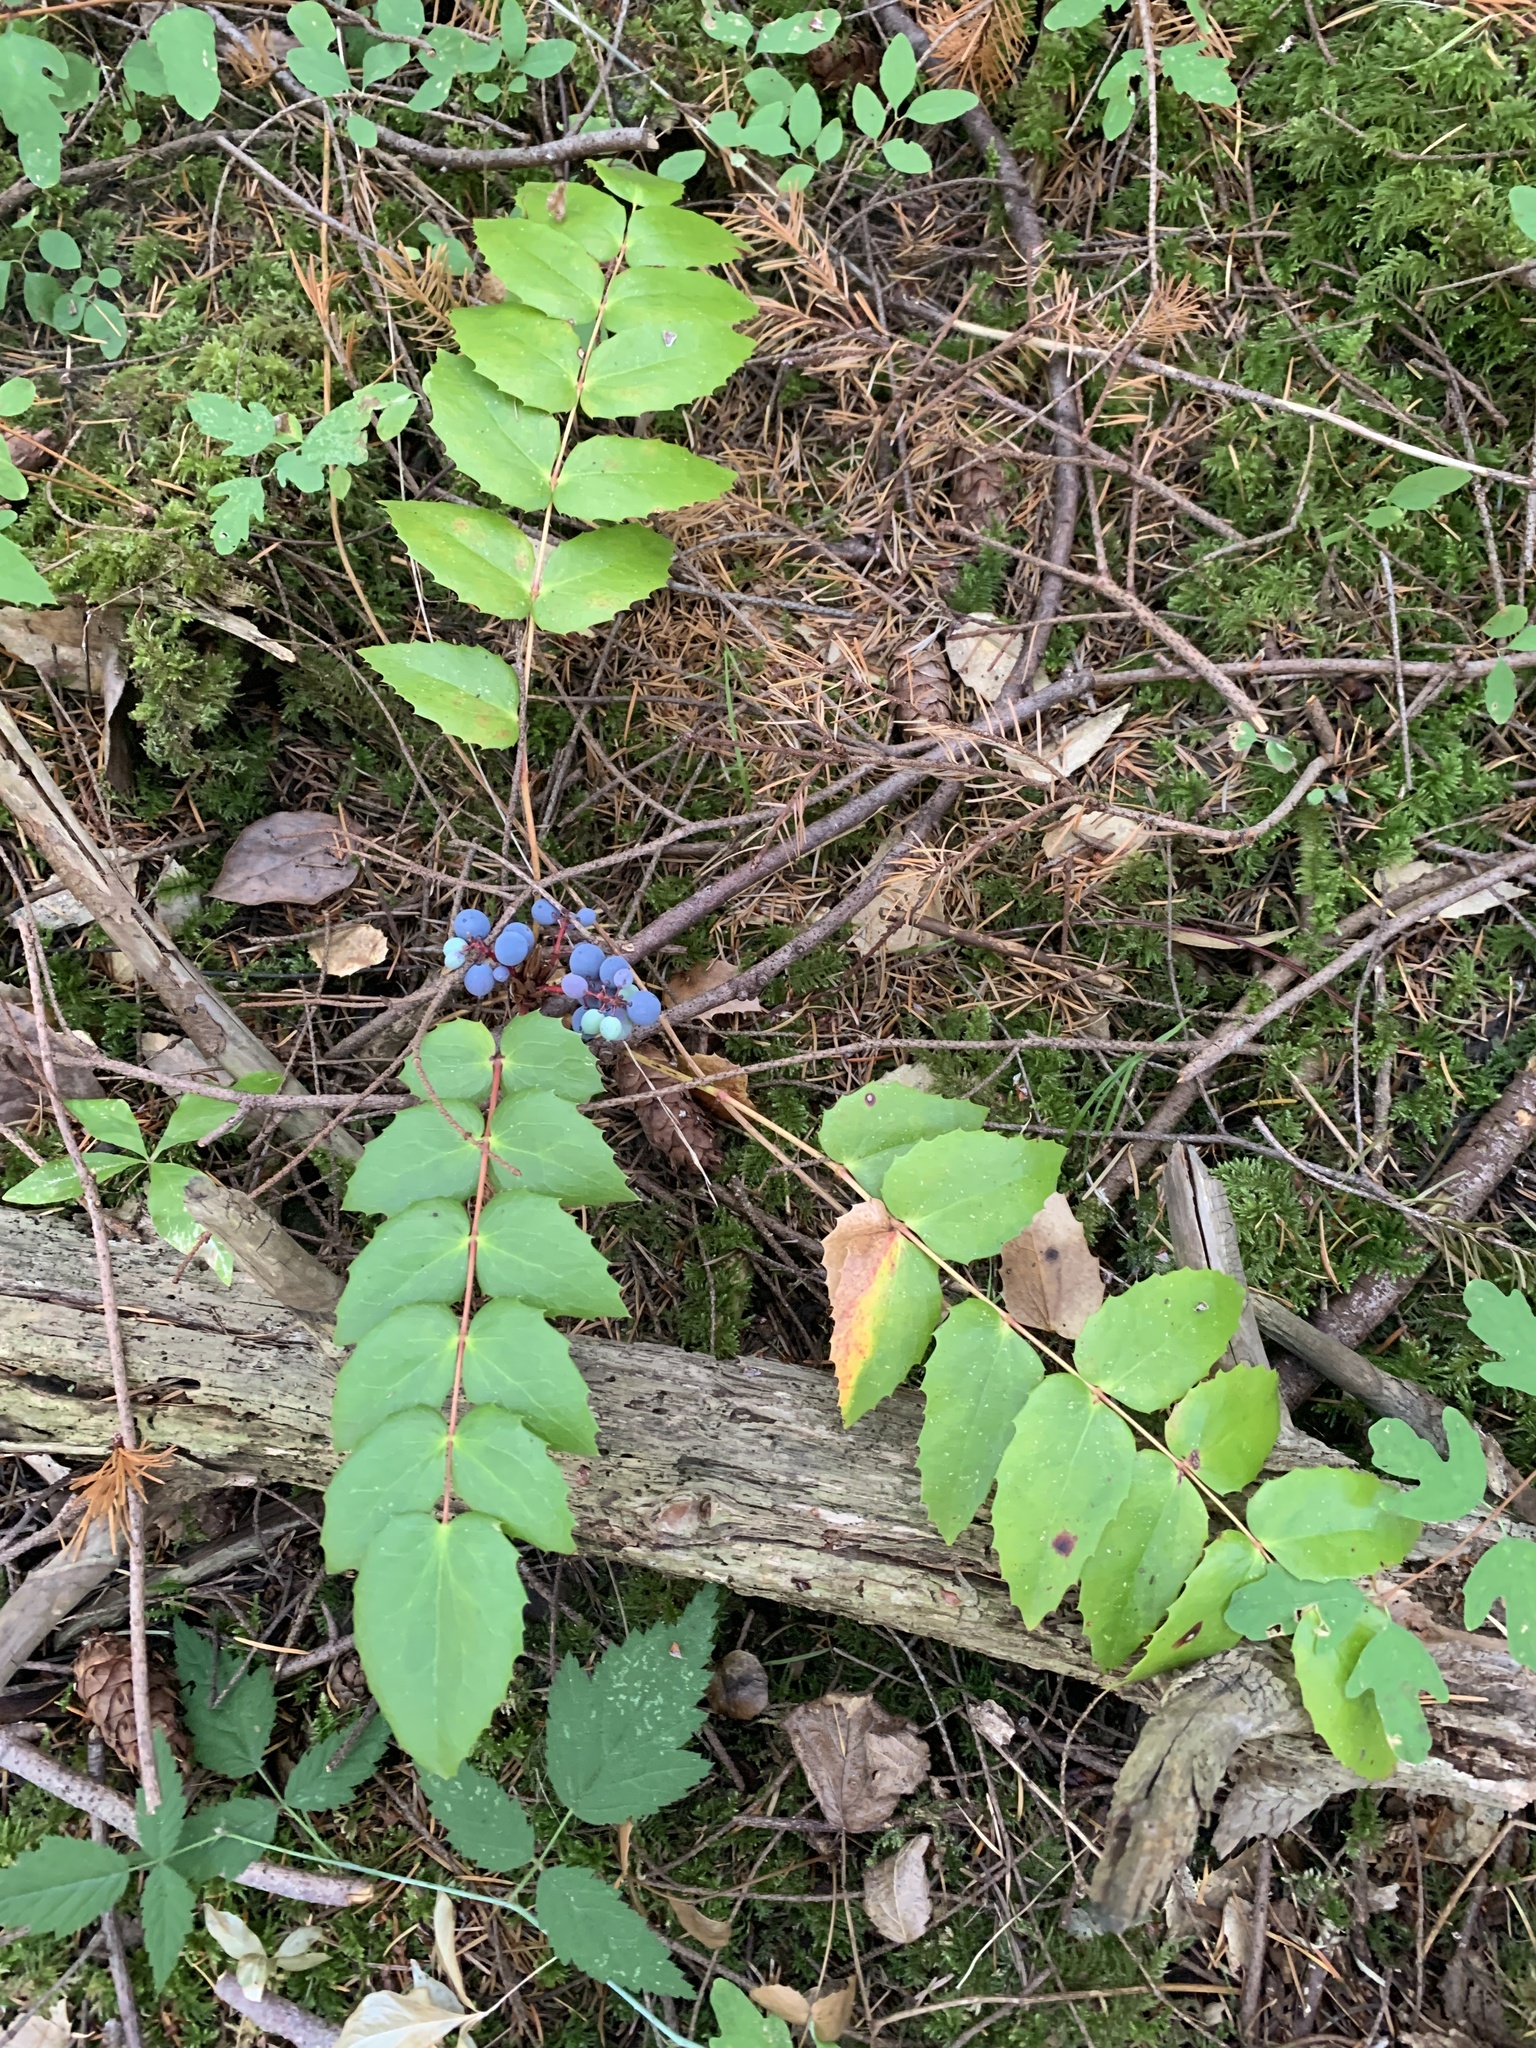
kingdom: Plantae
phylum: Tracheophyta
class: Magnoliopsida
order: Ranunculales
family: Berberidaceae
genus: Mahonia
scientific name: Mahonia nervosa
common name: Cascade oregon-grape
